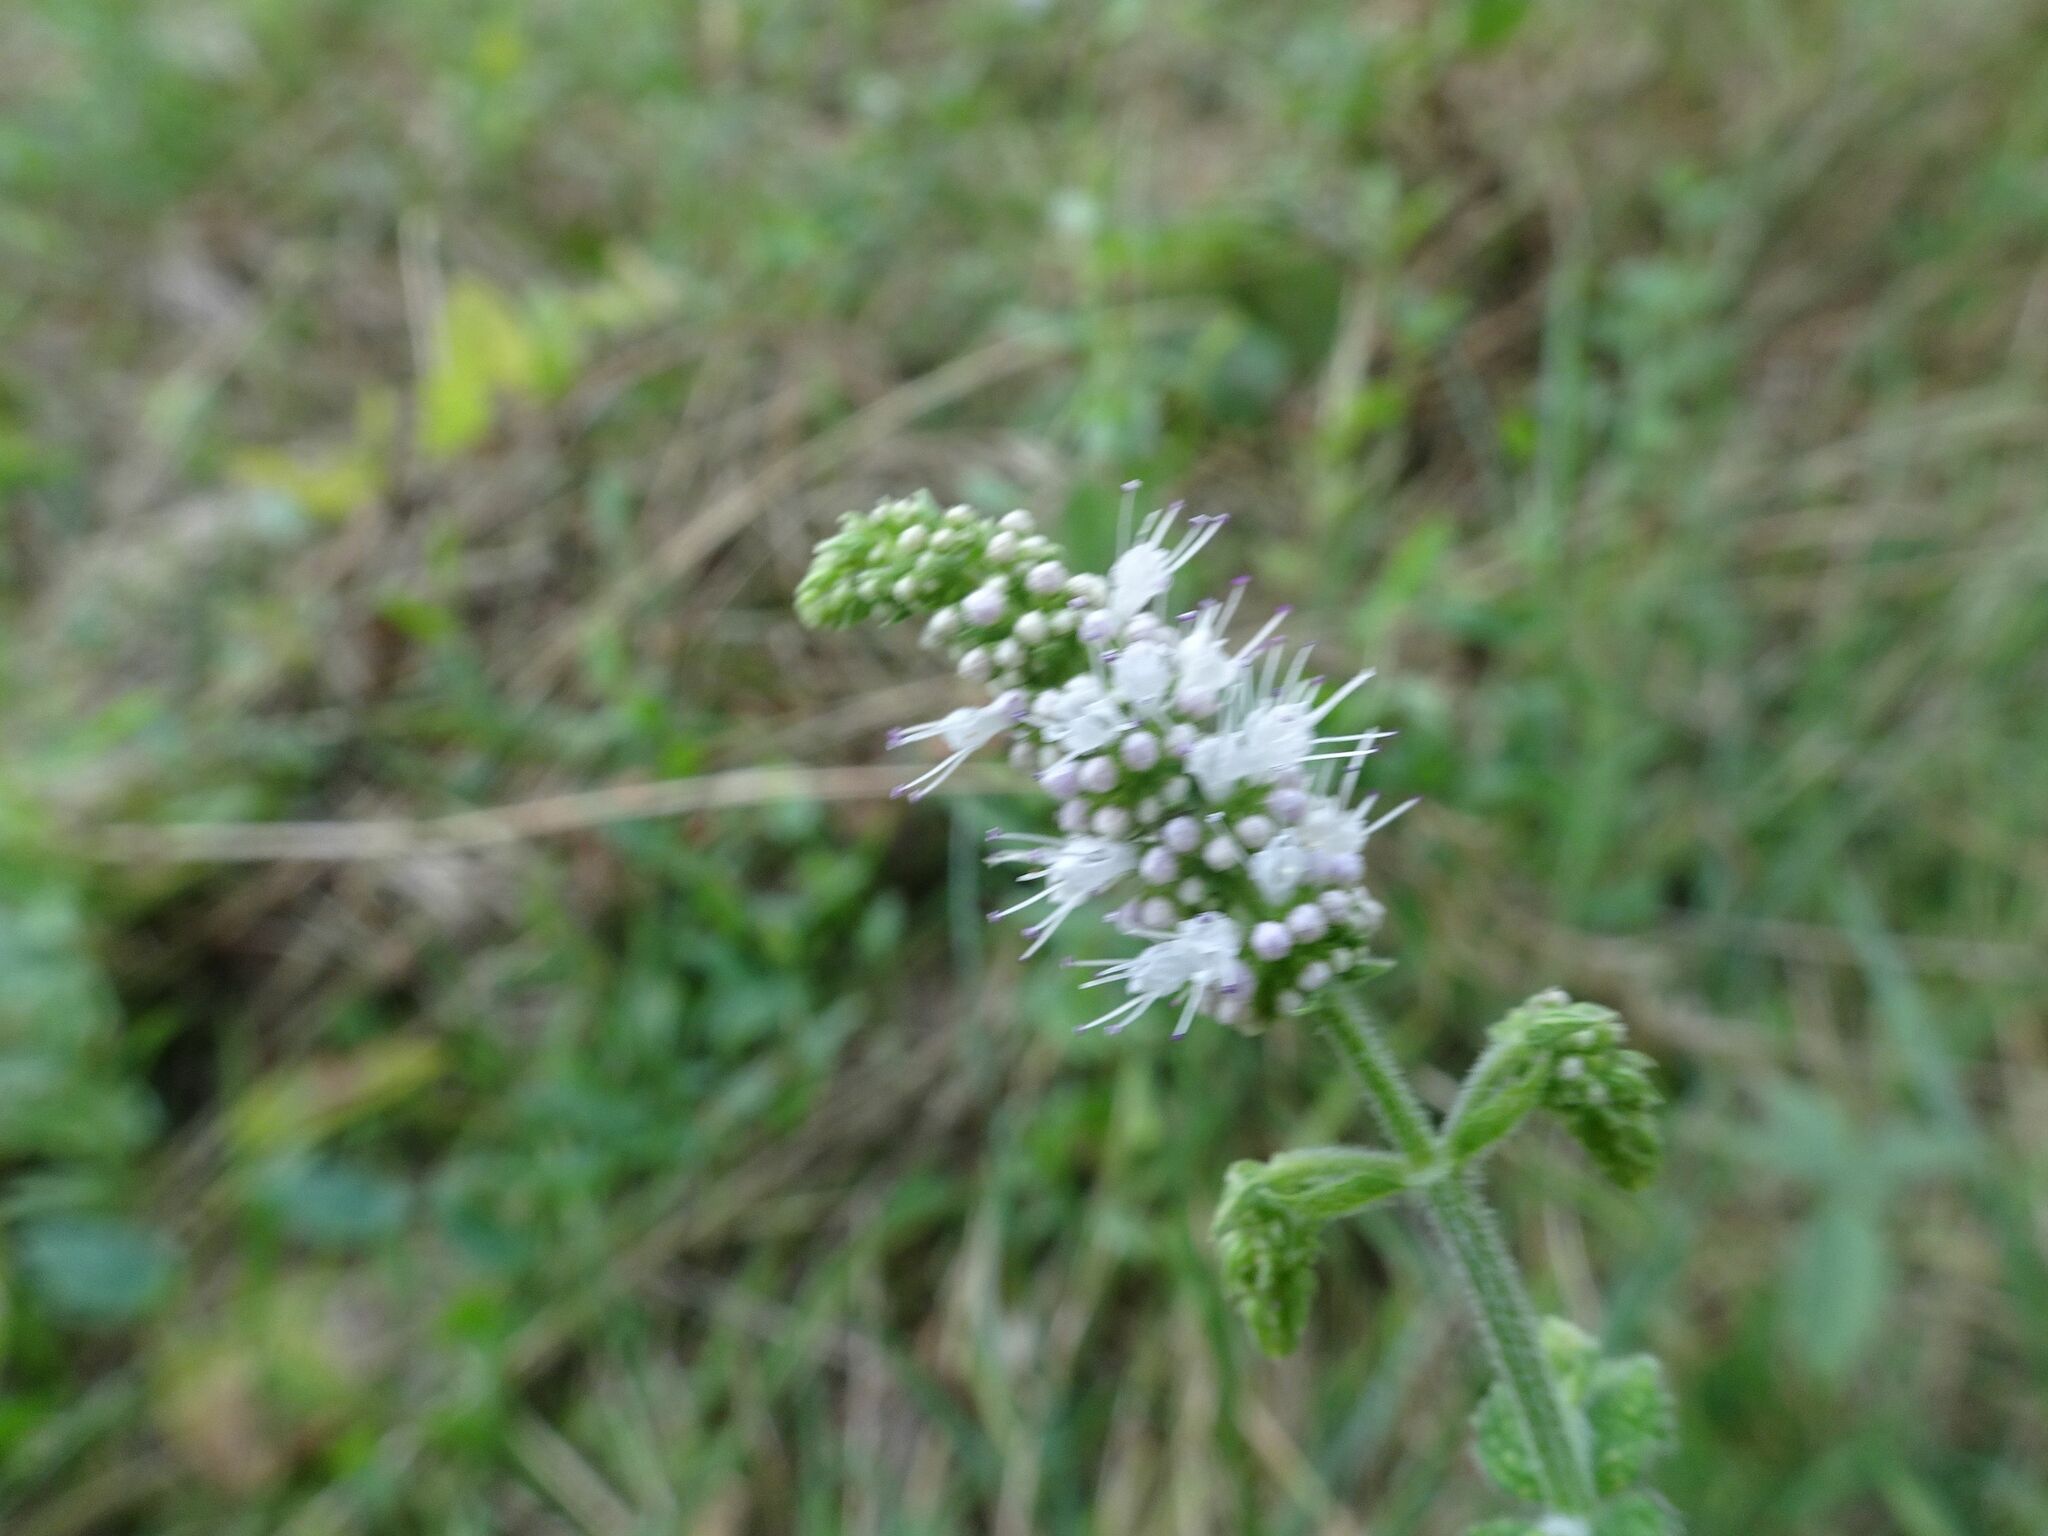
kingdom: Plantae
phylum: Tracheophyta
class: Magnoliopsida
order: Lamiales
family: Lamiaceae
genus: Mentha
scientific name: Mentha suaveolens
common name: Apple mint
